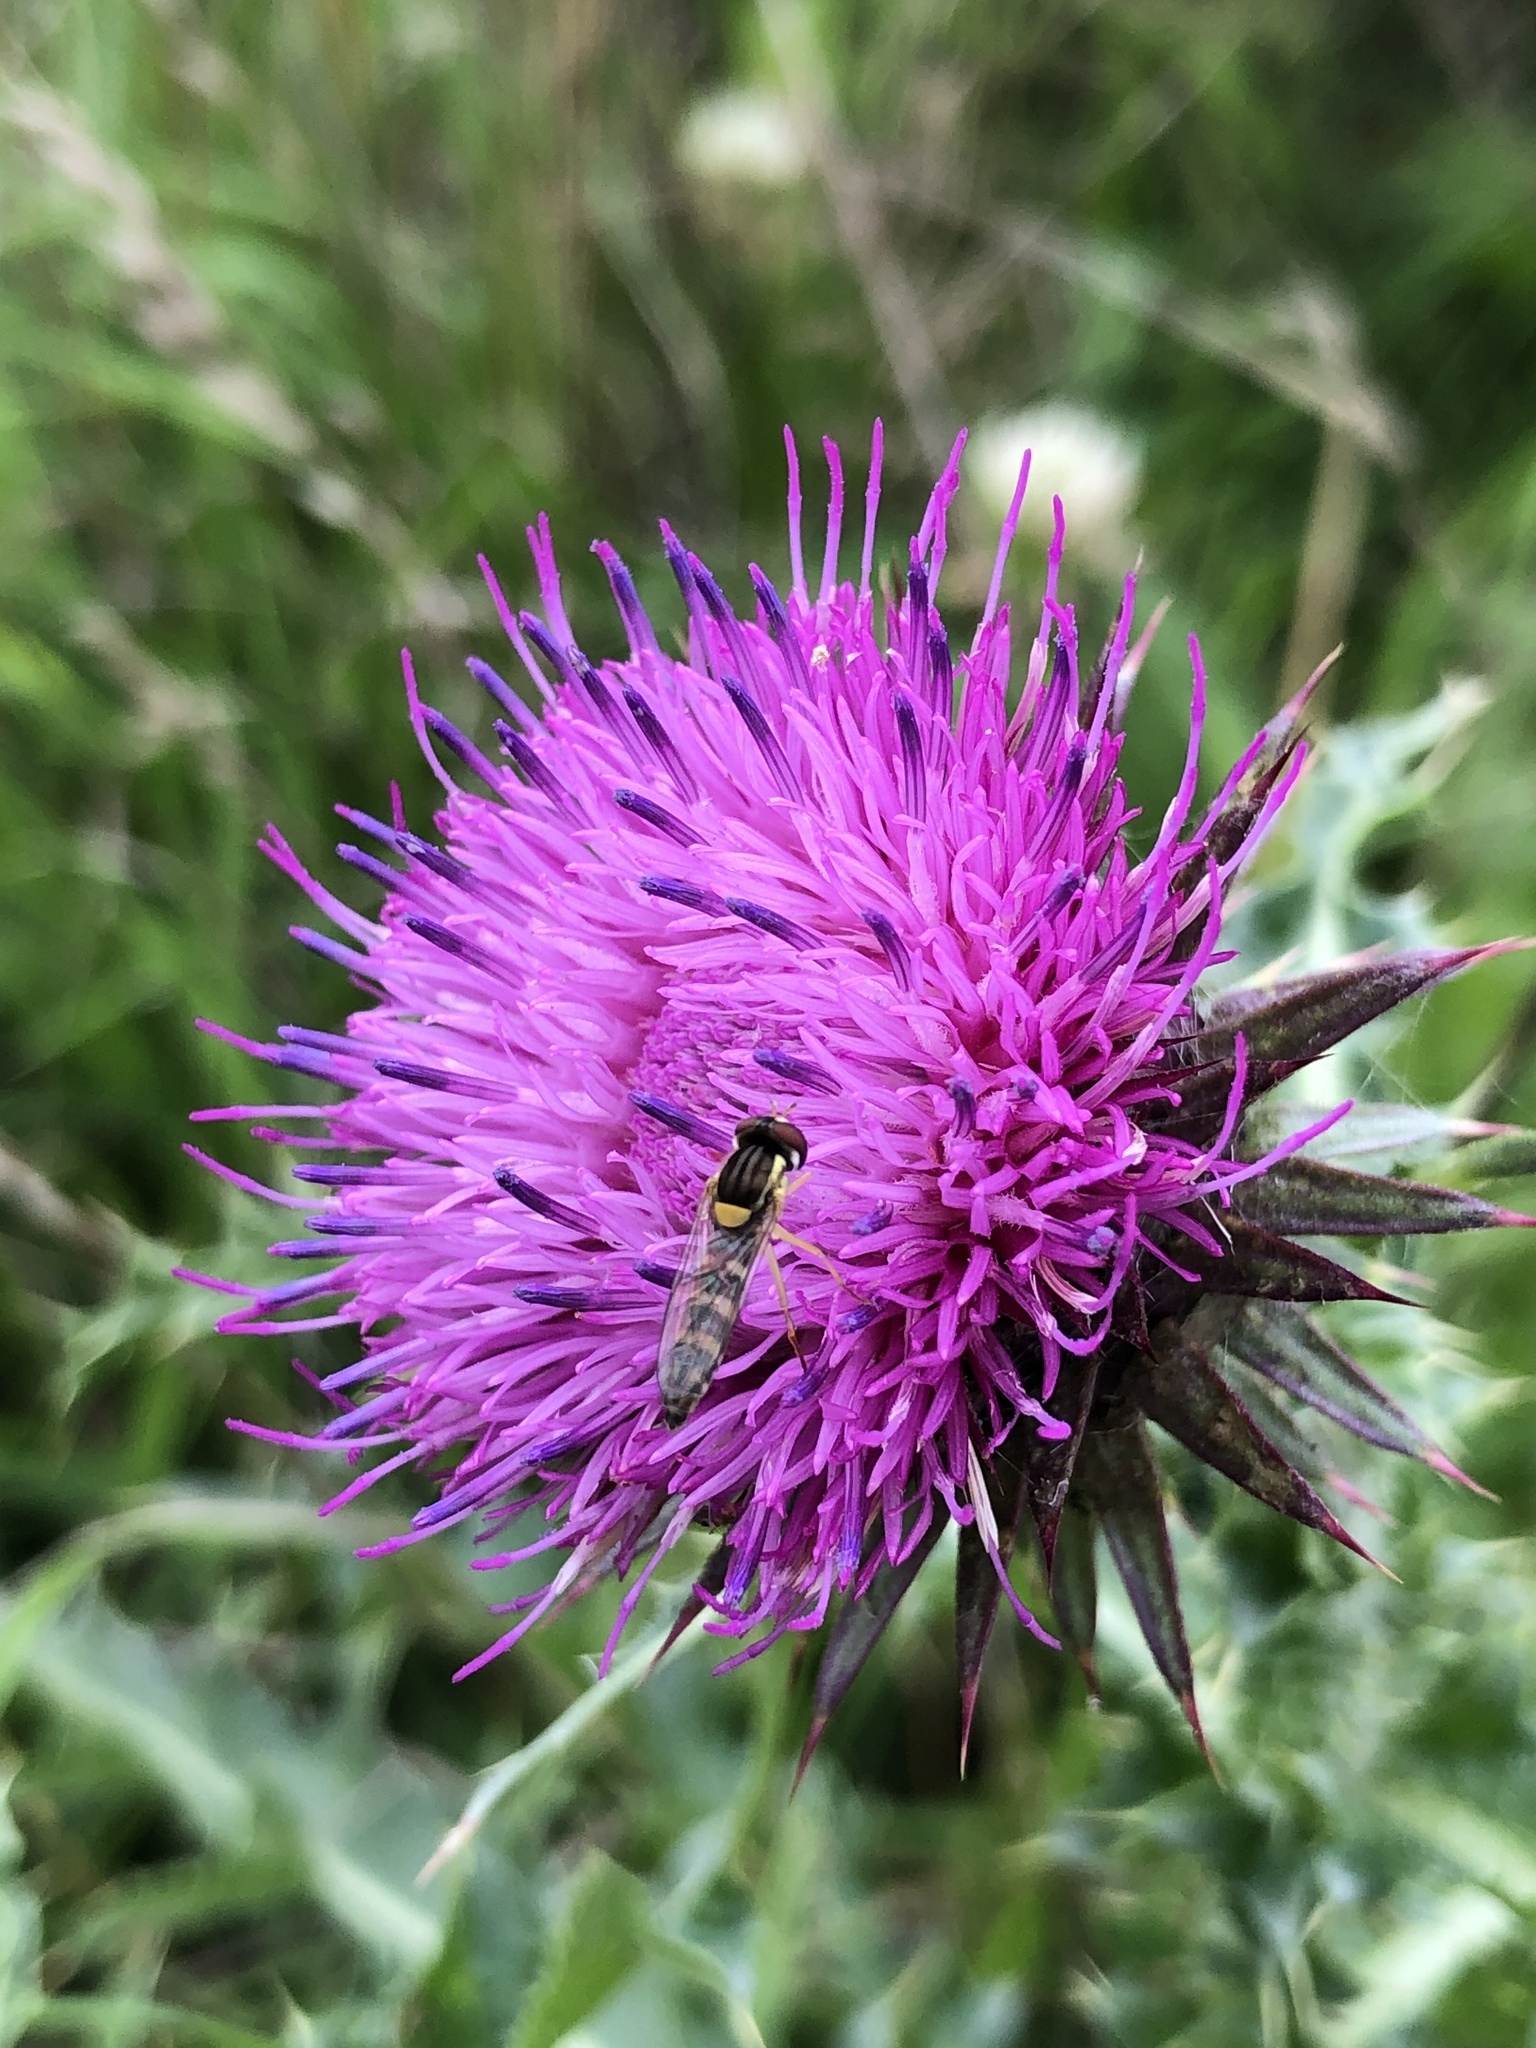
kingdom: Animalia
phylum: Arthropoda
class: Insecta
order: Diptera
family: Syrphidae
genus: Sphaerophoria
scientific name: Sphaerophoria
